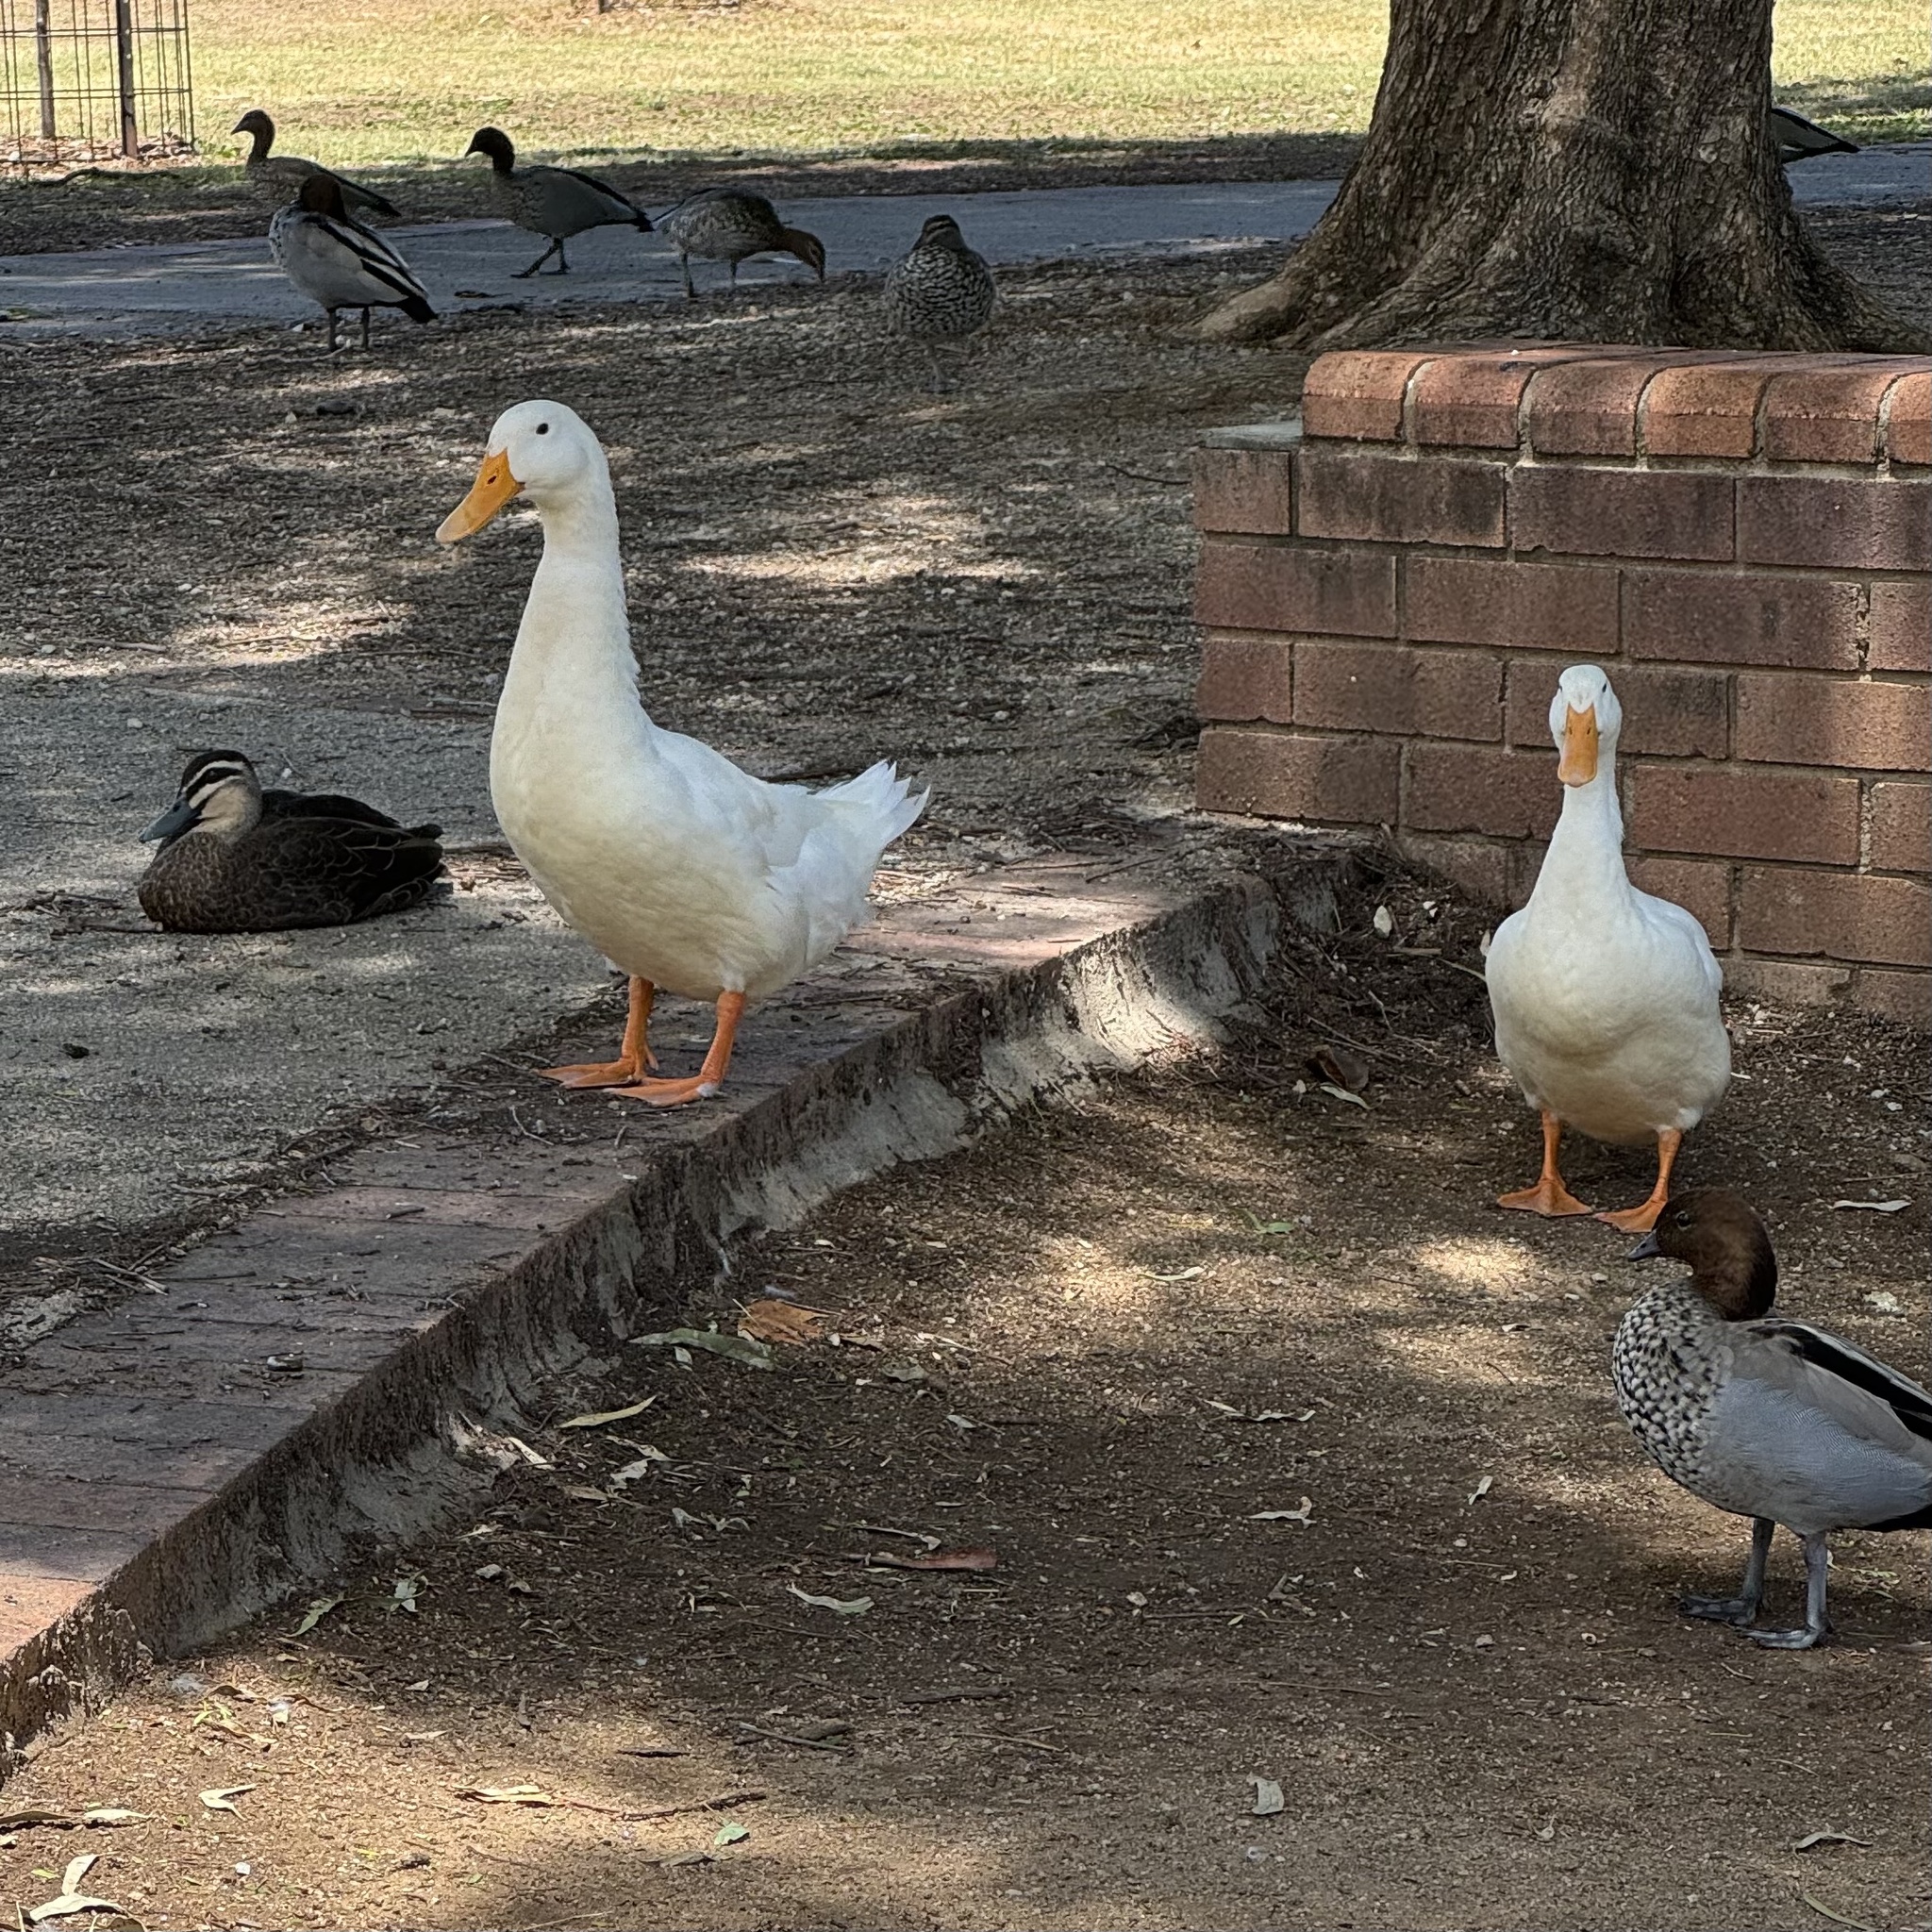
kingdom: Animalia
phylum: Chordata
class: Aves
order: Anseriformes
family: Anatidae
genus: Anas
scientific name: Anas platyrhynchos
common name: Mallard
